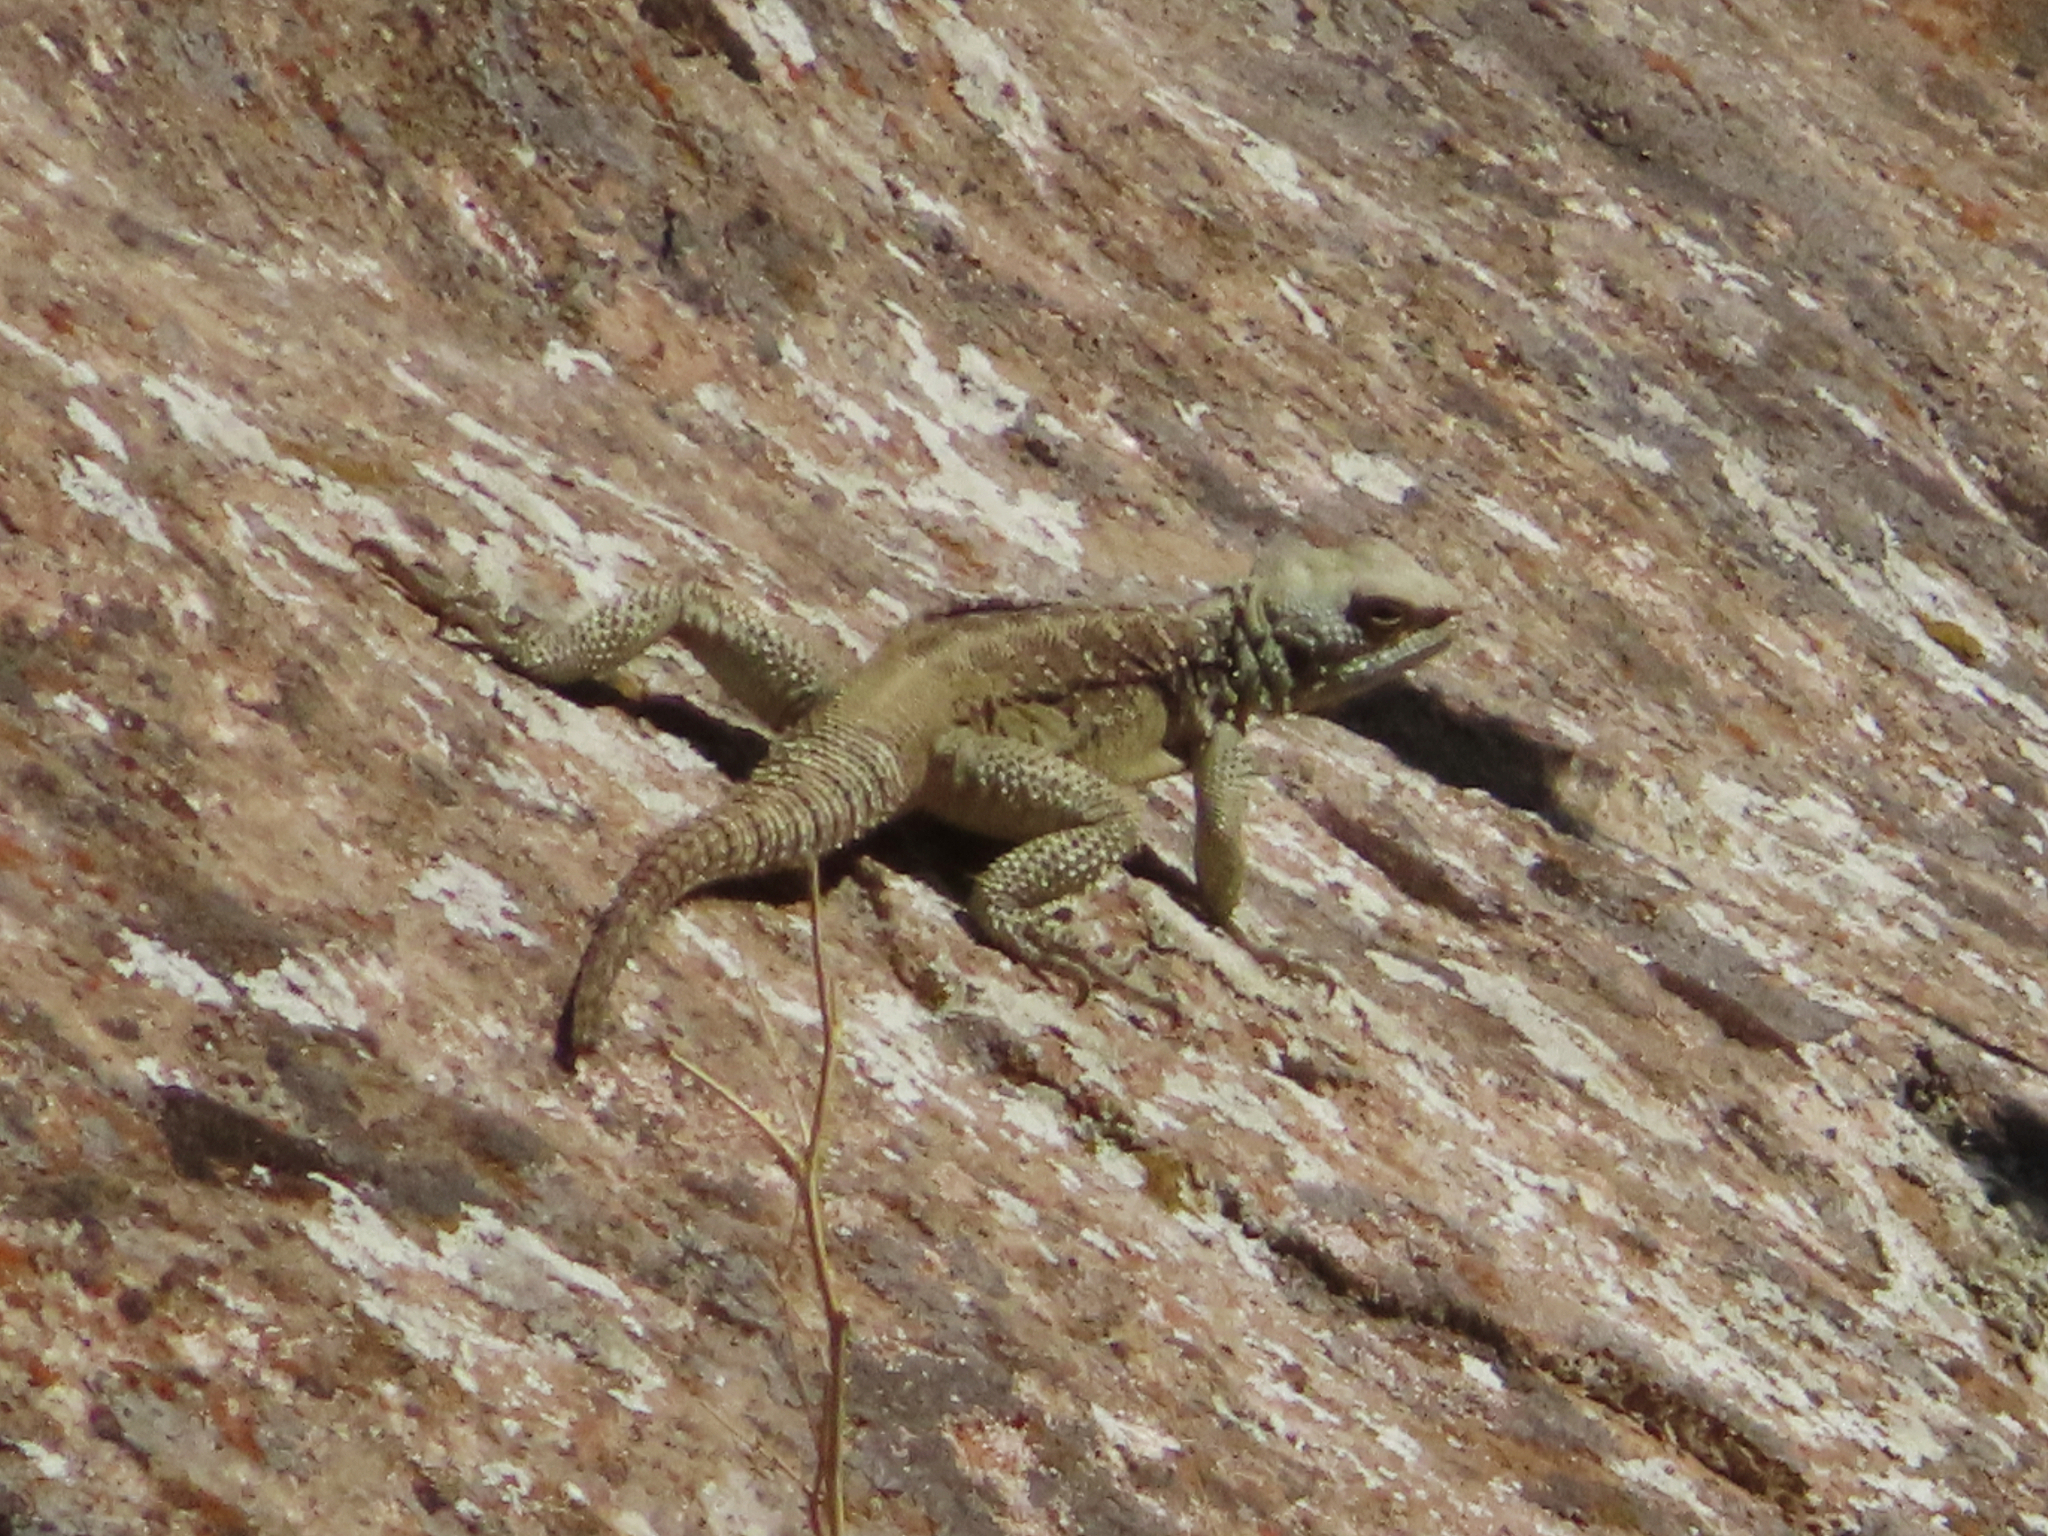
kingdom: Animalia
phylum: Chordata
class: Squamata
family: Agamidae
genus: Paralaudakia
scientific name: Paralaudakia caucasia
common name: Caucasian agama
